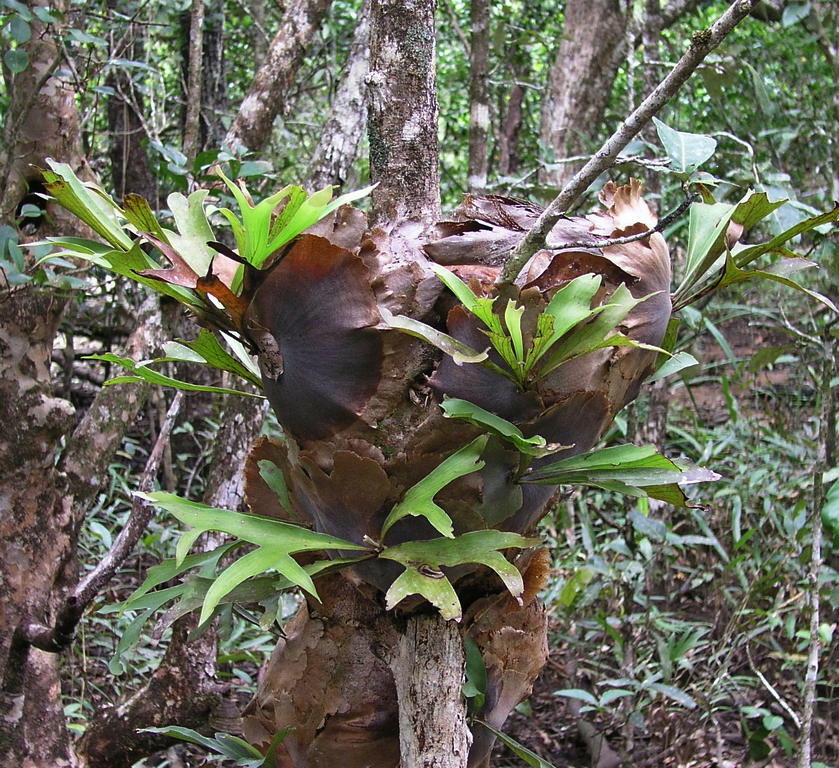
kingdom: Plantae
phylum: Tracheophyta
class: Polypodiopsida
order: Polypodiales
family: Polypodiaceae
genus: Platycerium
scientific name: Platycerium hillii
